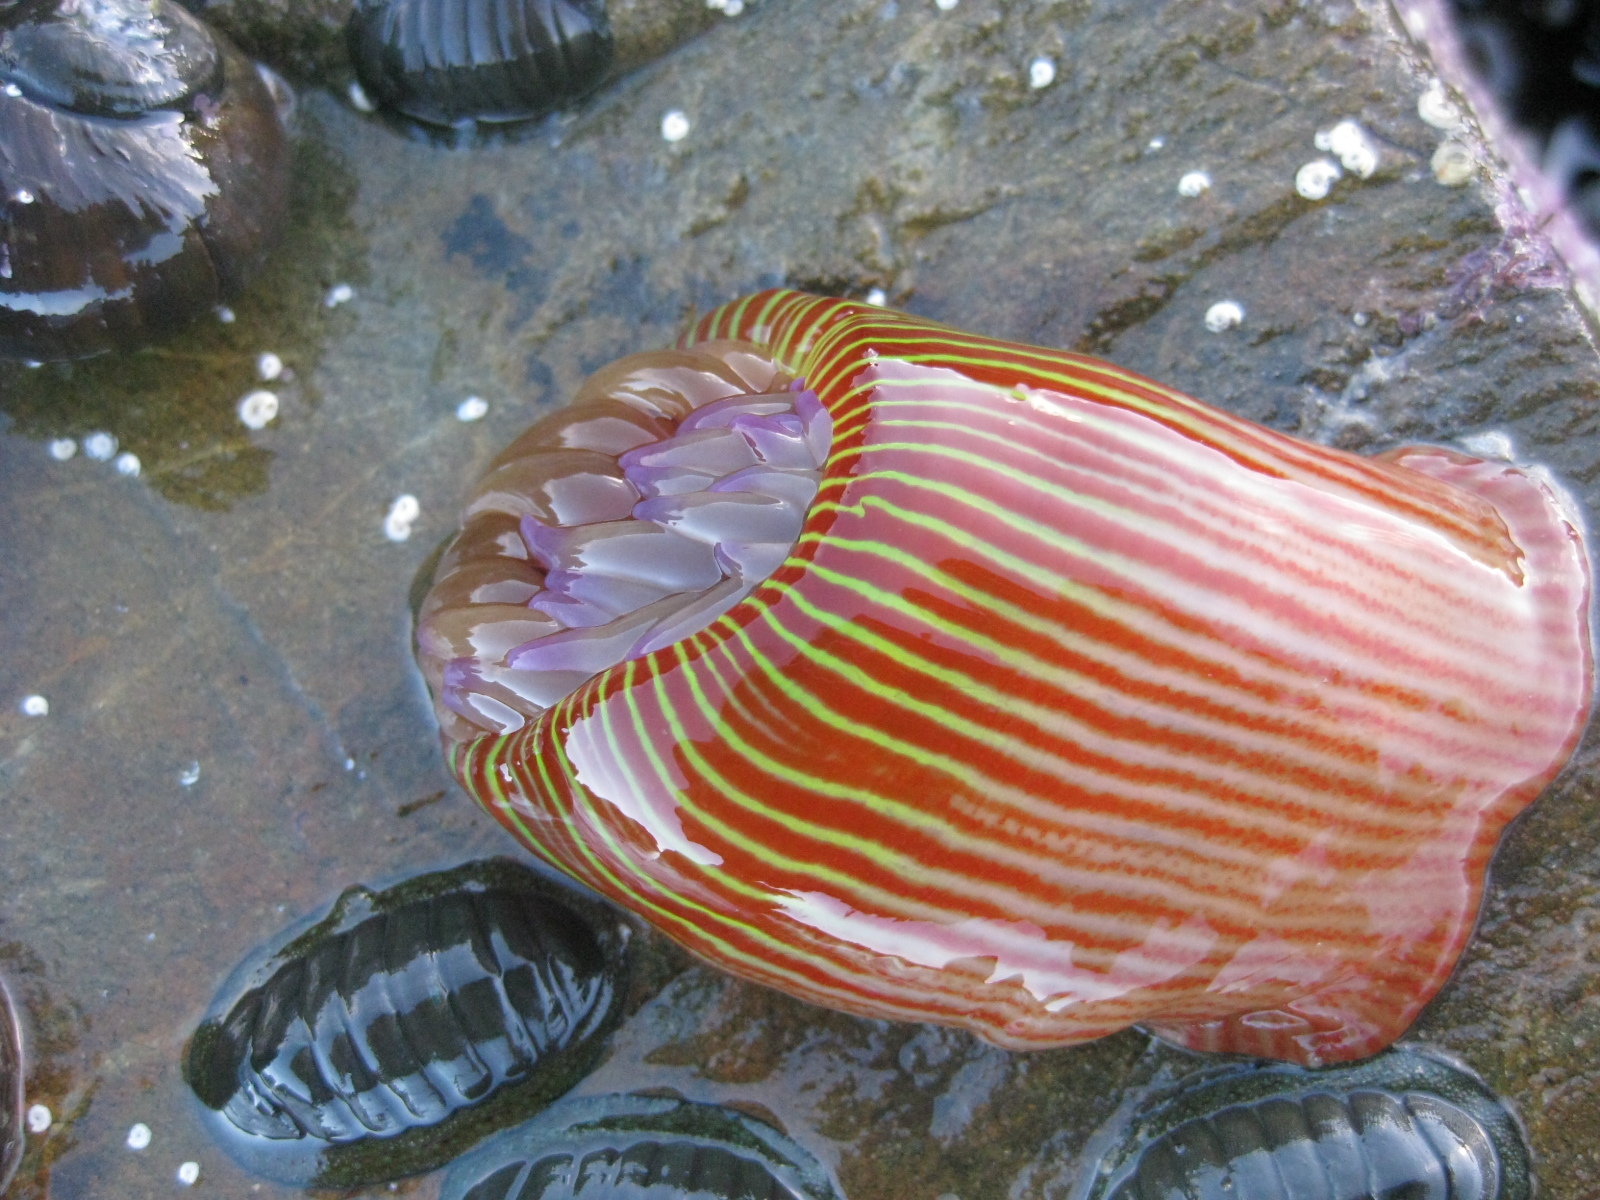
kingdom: Animalia
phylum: Cnidaria
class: Anthozoa
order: Actiniaria
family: Actiniidae
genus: Epiactis
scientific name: Epiactis thompsoni
